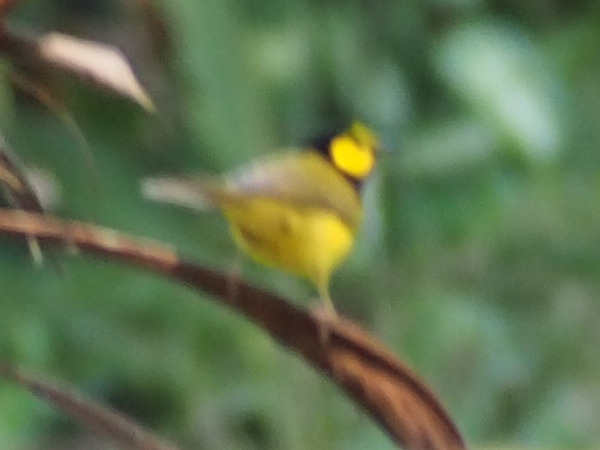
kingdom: Animalia
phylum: Chordata
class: Aves
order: Passeriformes
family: Parulidae
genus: Setophaga
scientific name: Setophaga citrina
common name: Hooded warbler
